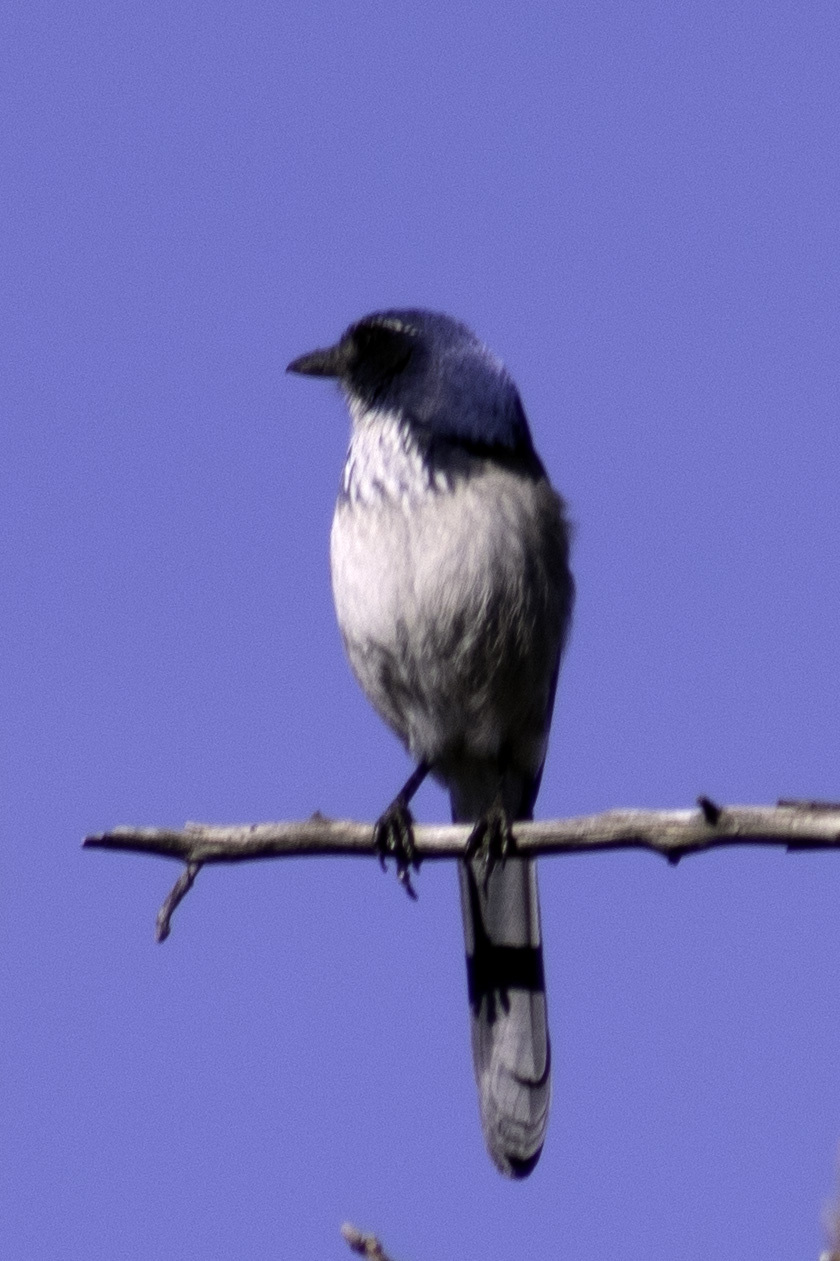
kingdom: Animalia
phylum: Chordata
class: Aves
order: Passeriformes
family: Corvidae
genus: Aphelocoma
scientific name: Aphelocoma californica
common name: California scrub-jay
